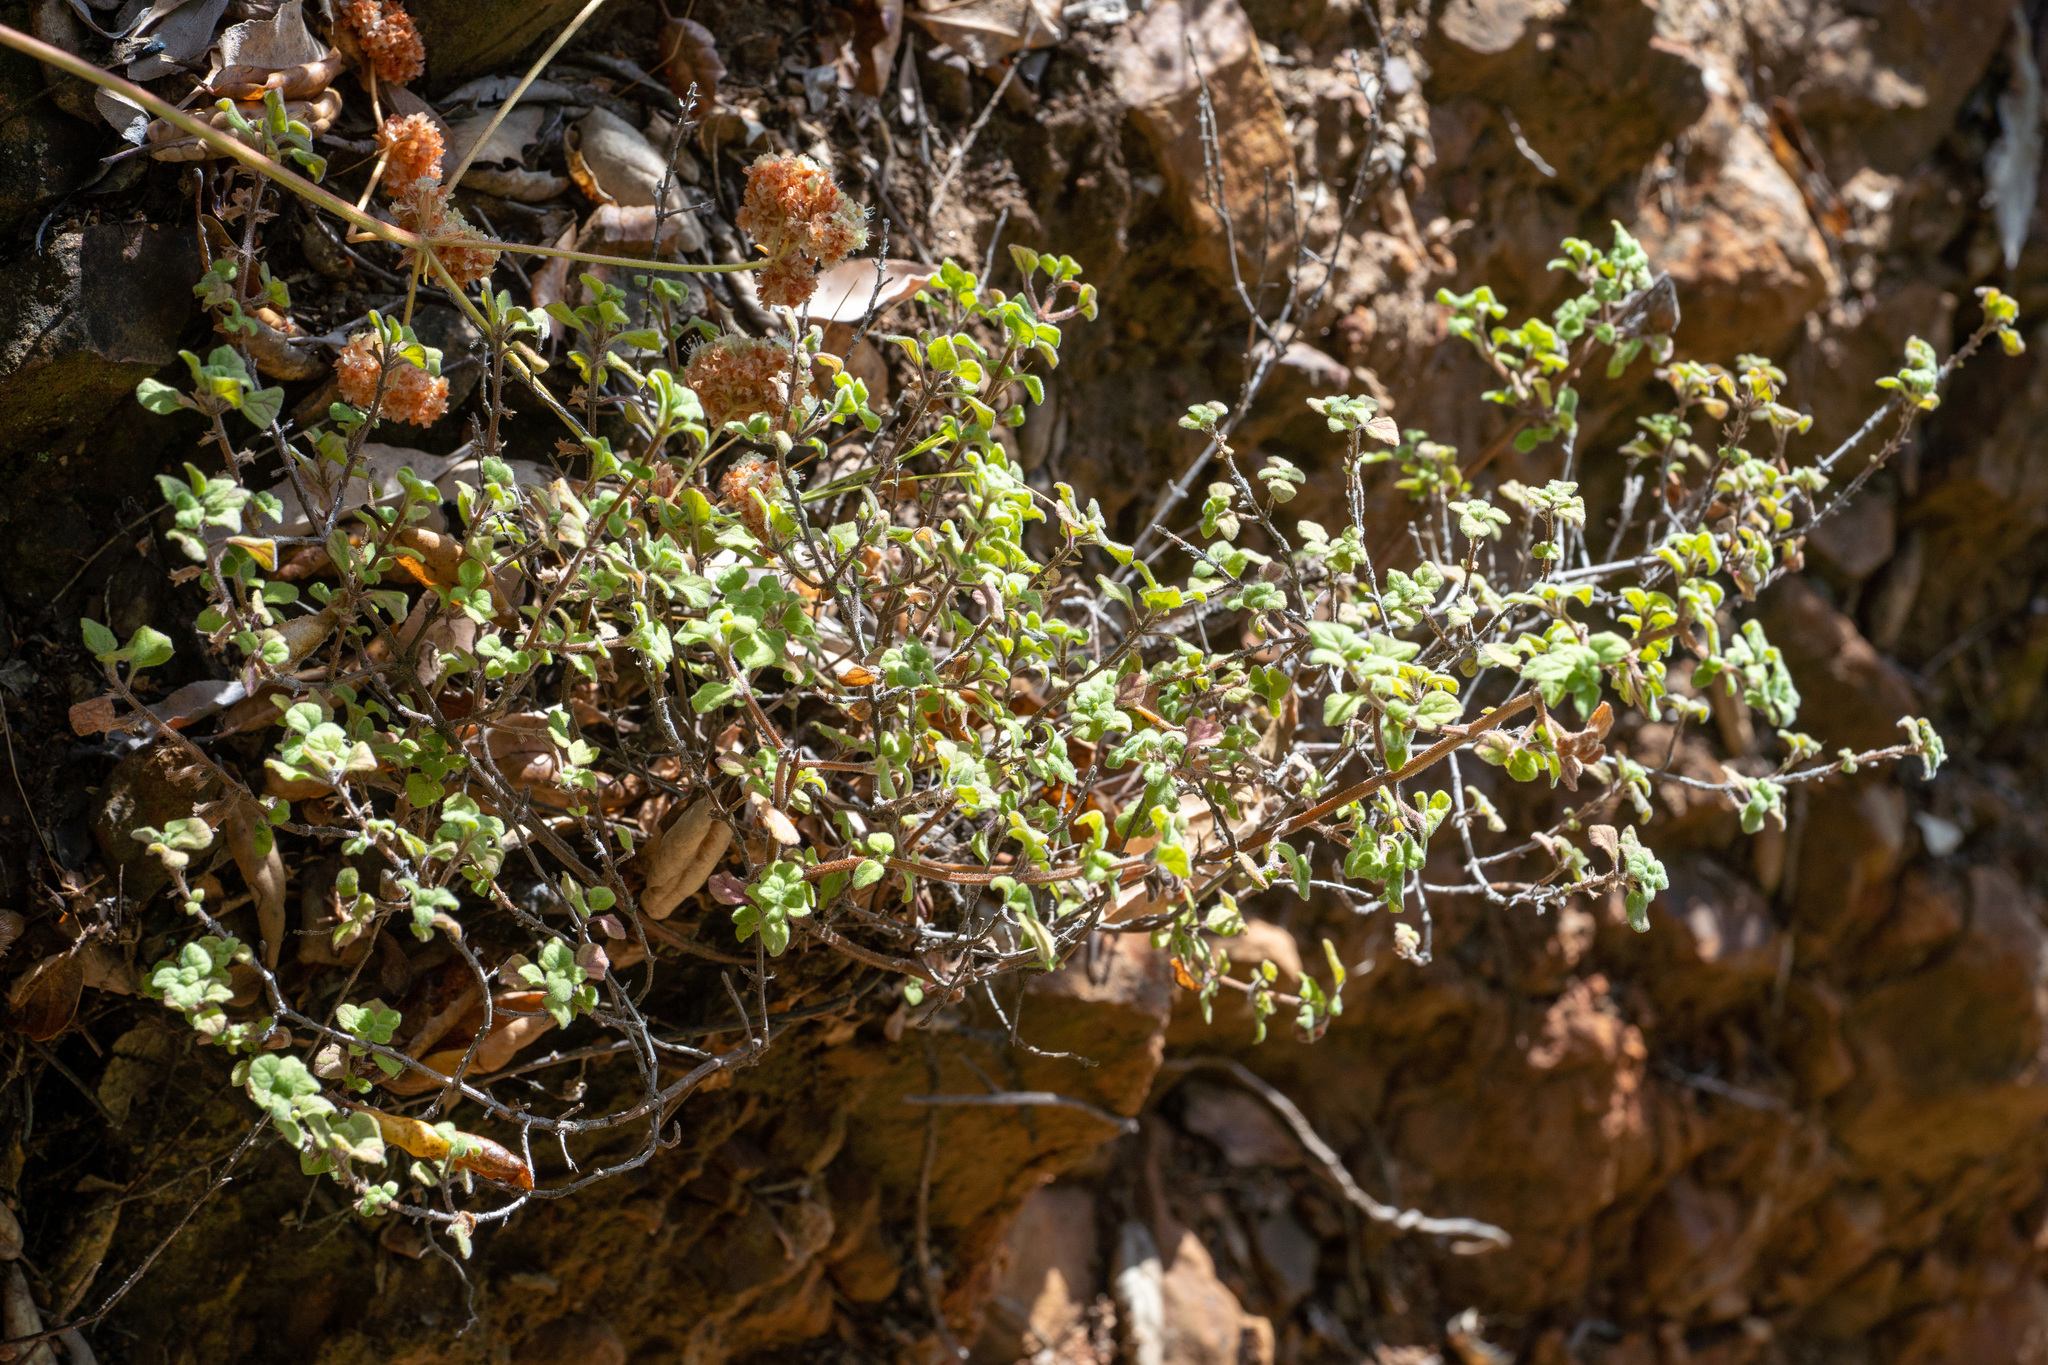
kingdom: Plantae
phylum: Tracheophyta
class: Magnoliopsida
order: Lamiales
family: Lamiaceae
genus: Clinopodium
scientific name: Clinopodium chandleri
